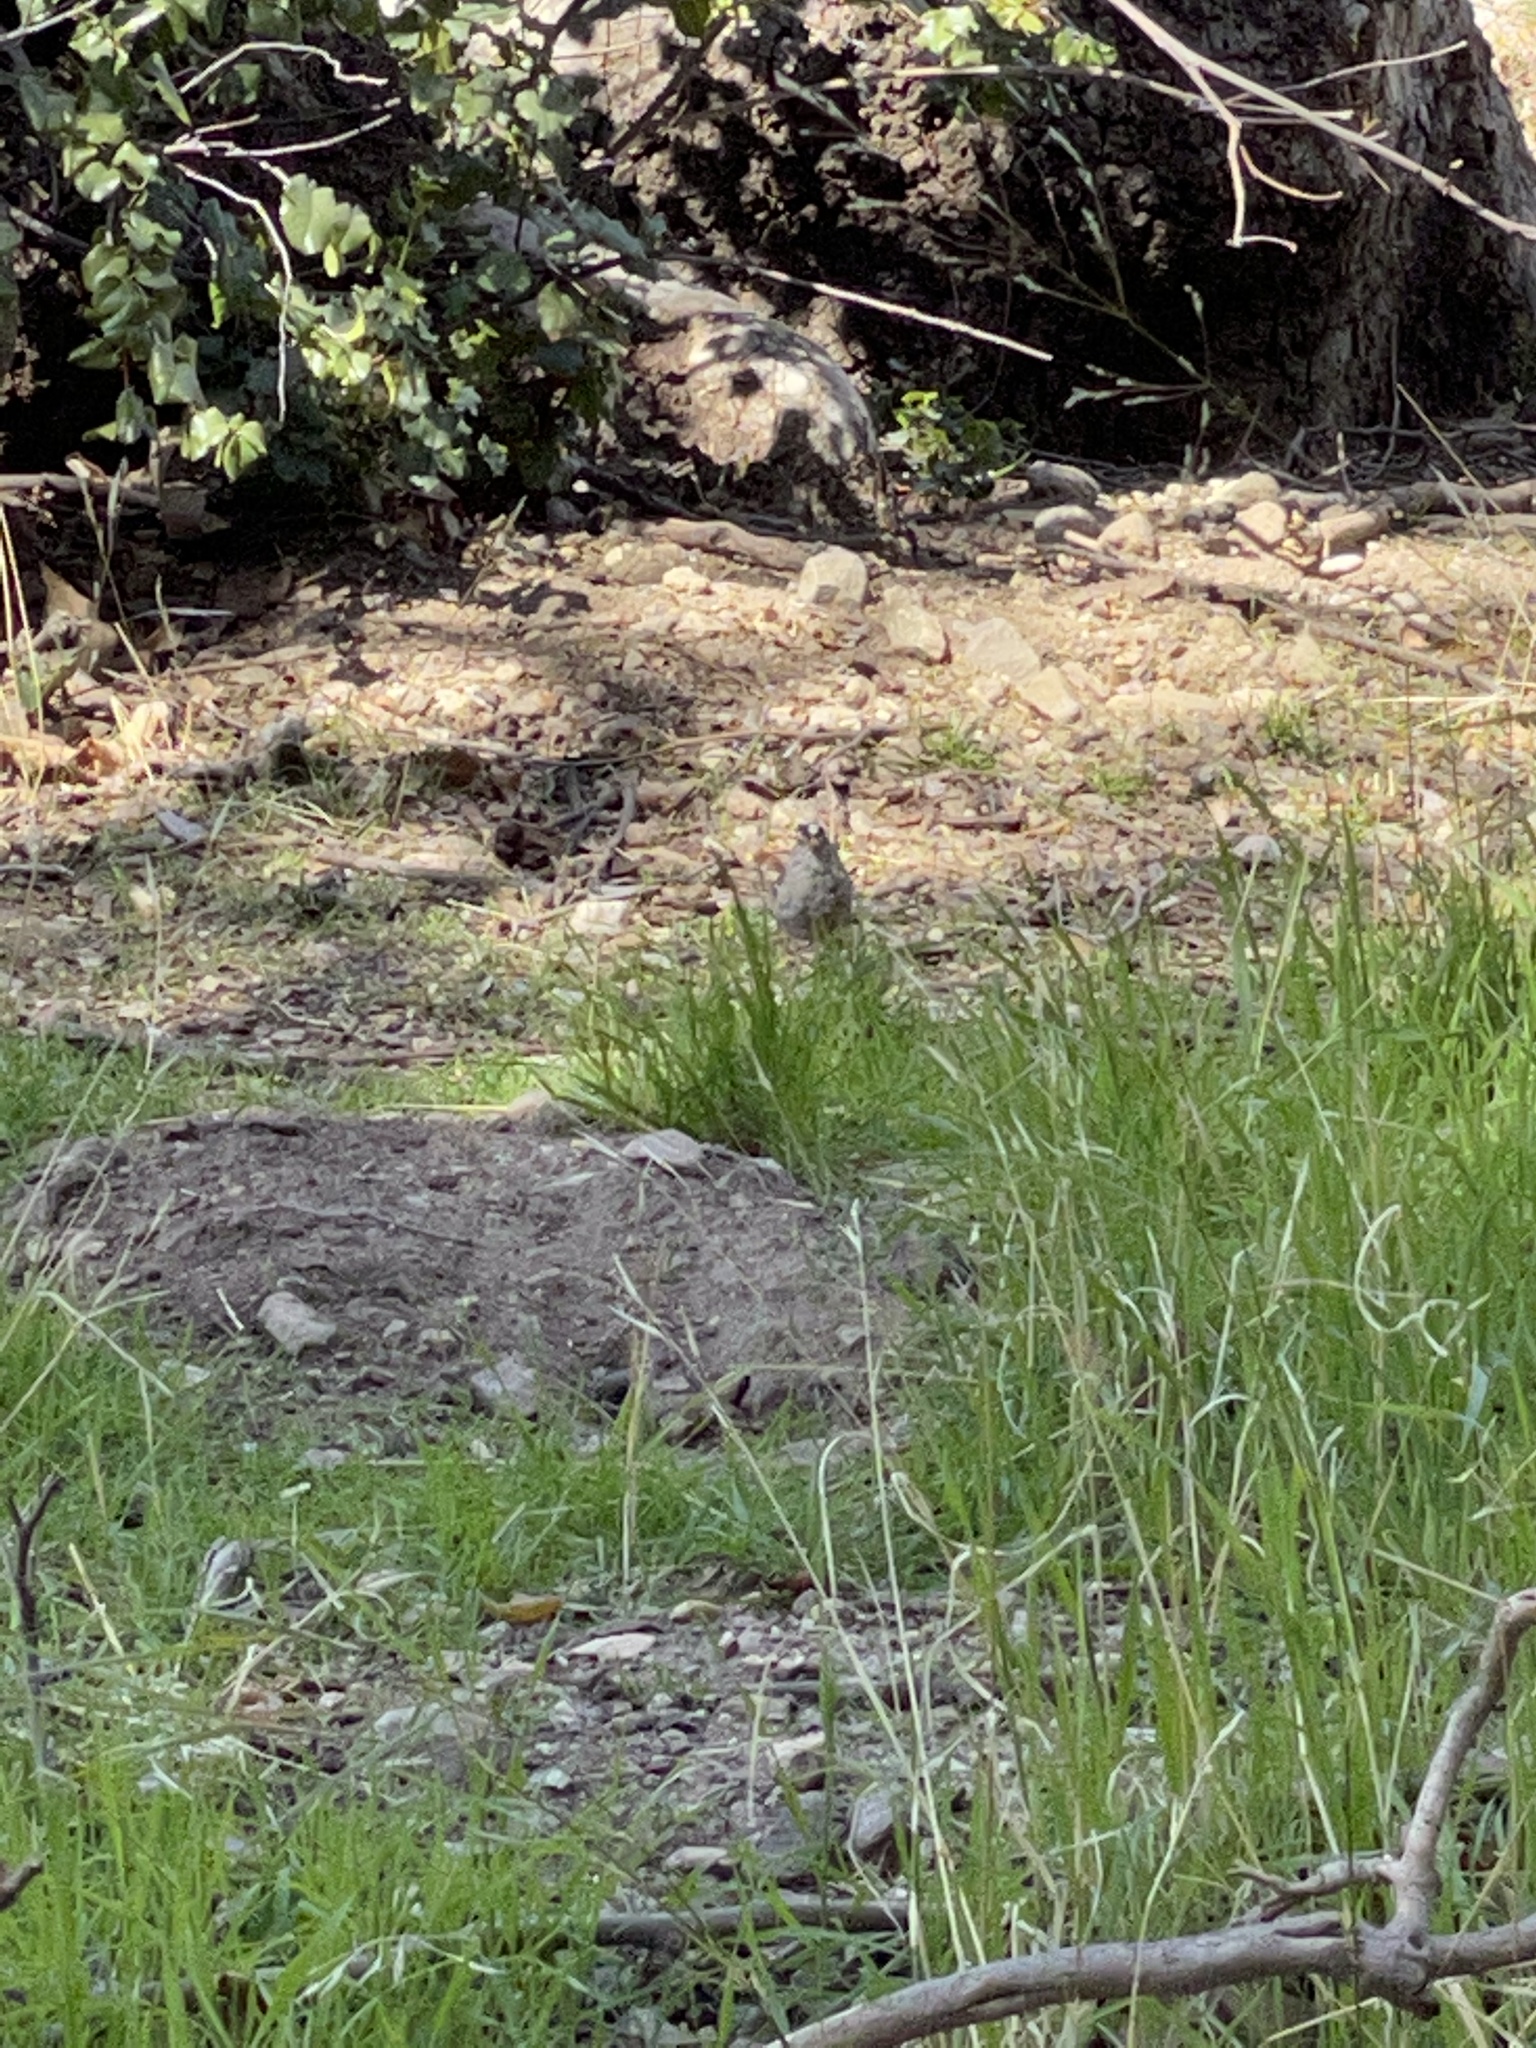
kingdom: Animalia
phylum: Chordata
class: Aves
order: Passeriformes
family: Passerellidae
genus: Zonotrichia
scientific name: Zonotrichia leucophrys
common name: White-crowned sparrow
